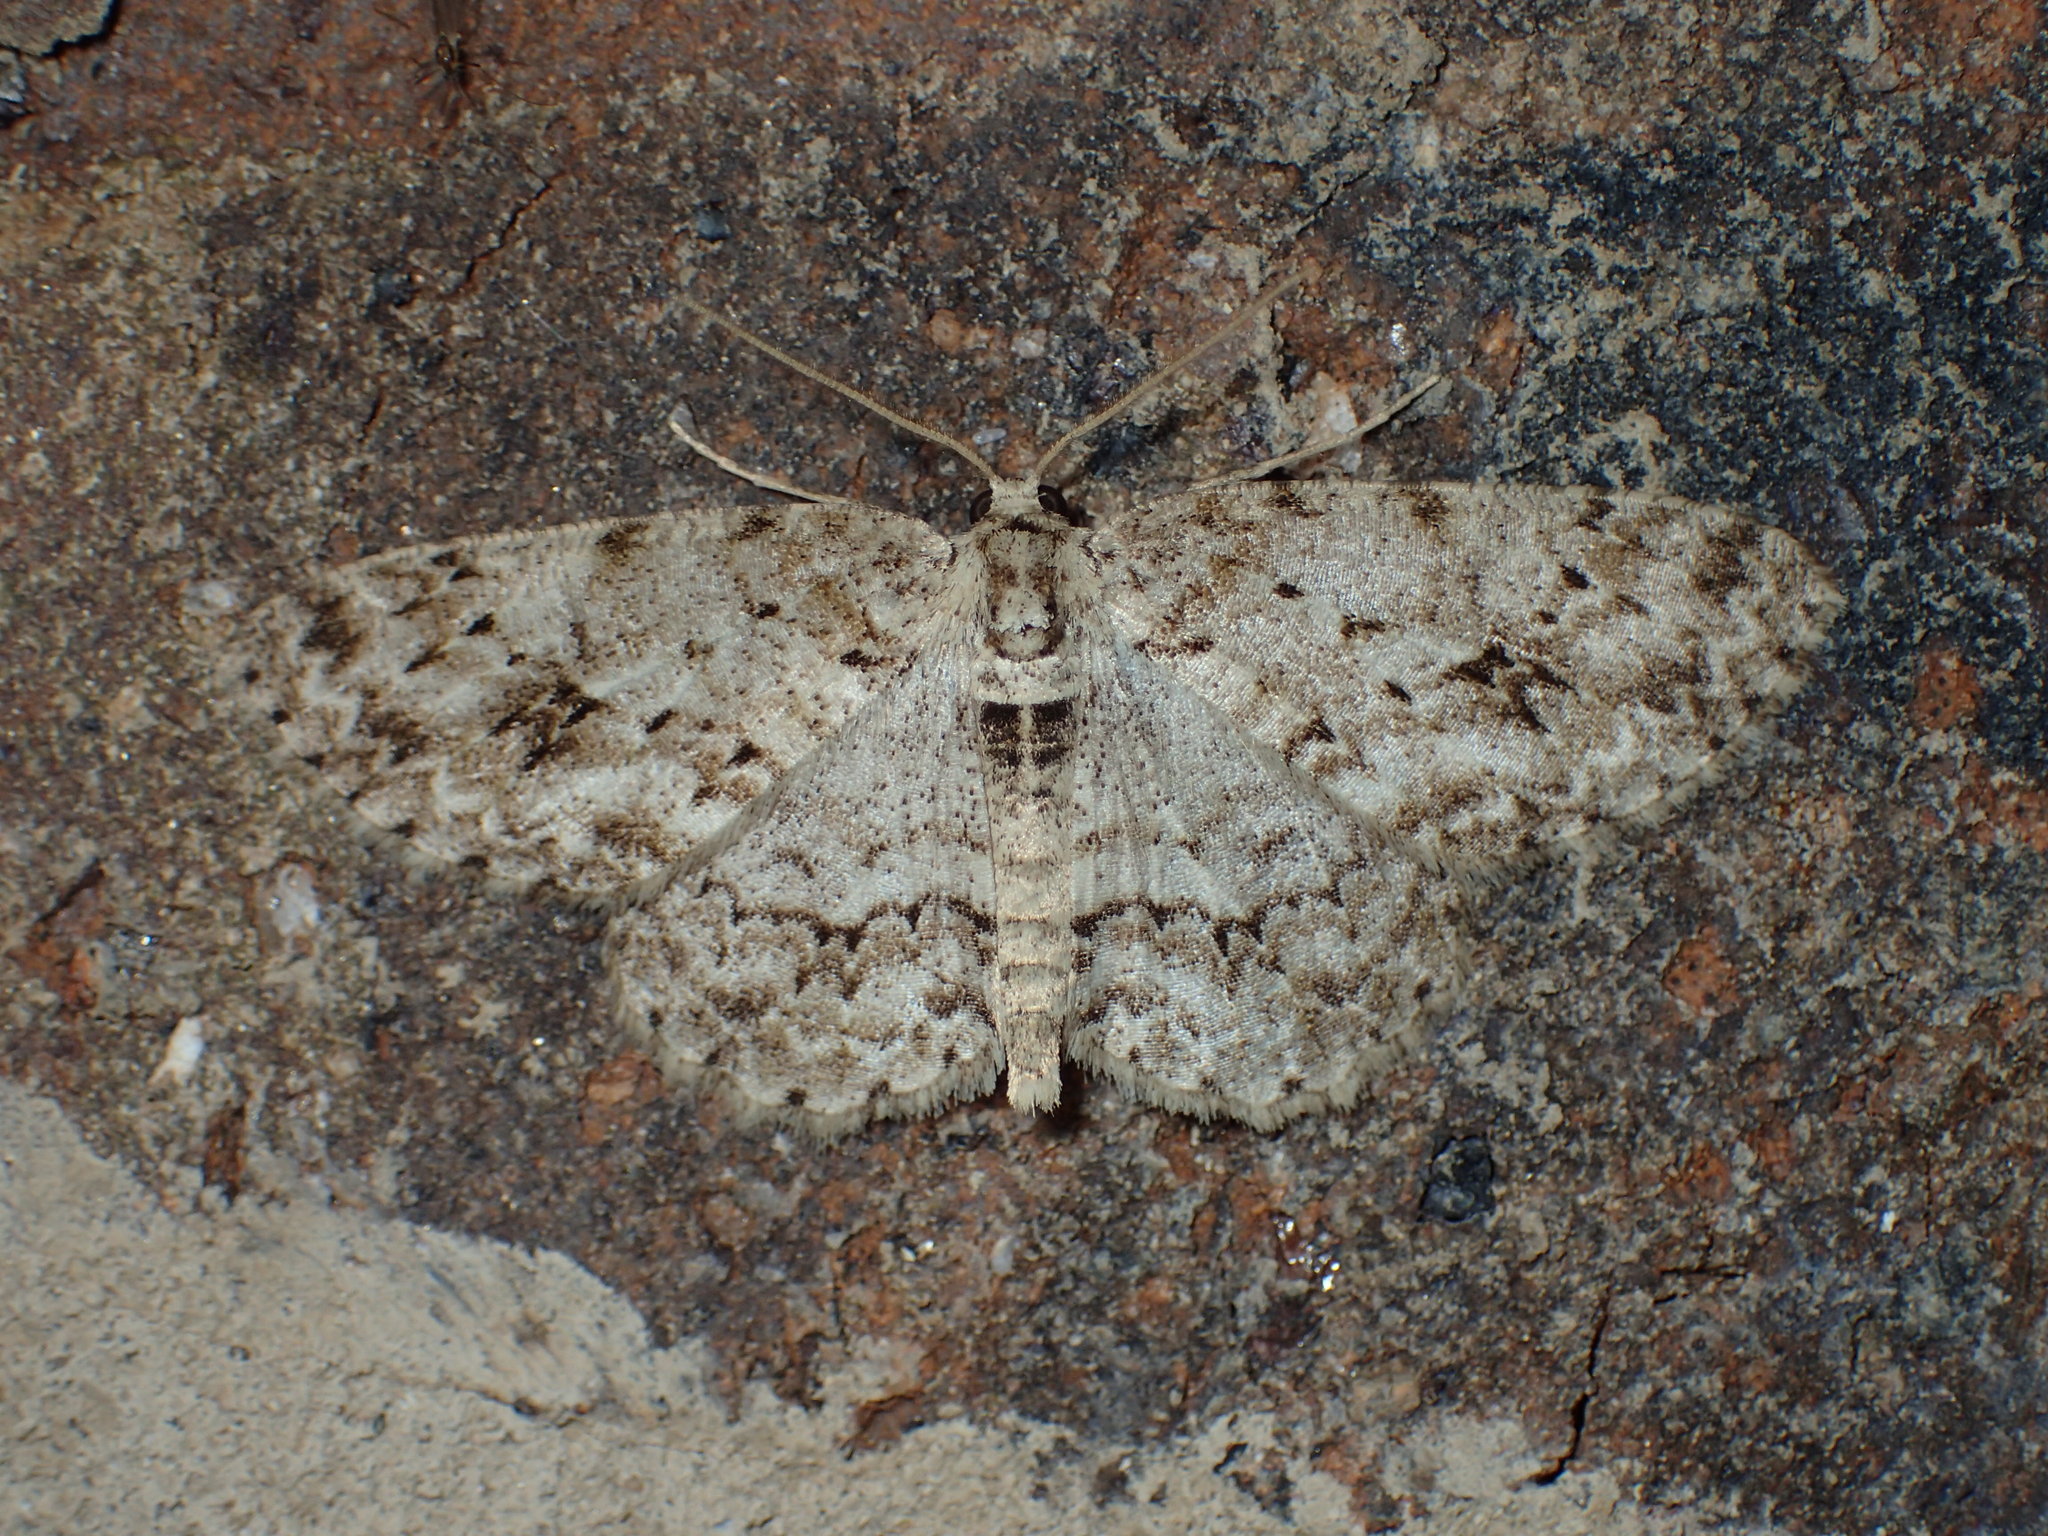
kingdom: Animalia
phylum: Arthropoda
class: Insecta
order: Lepidoptera
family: Geometridae
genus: Ectropis
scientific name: Ectropis crepuscularia
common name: Engrailed
